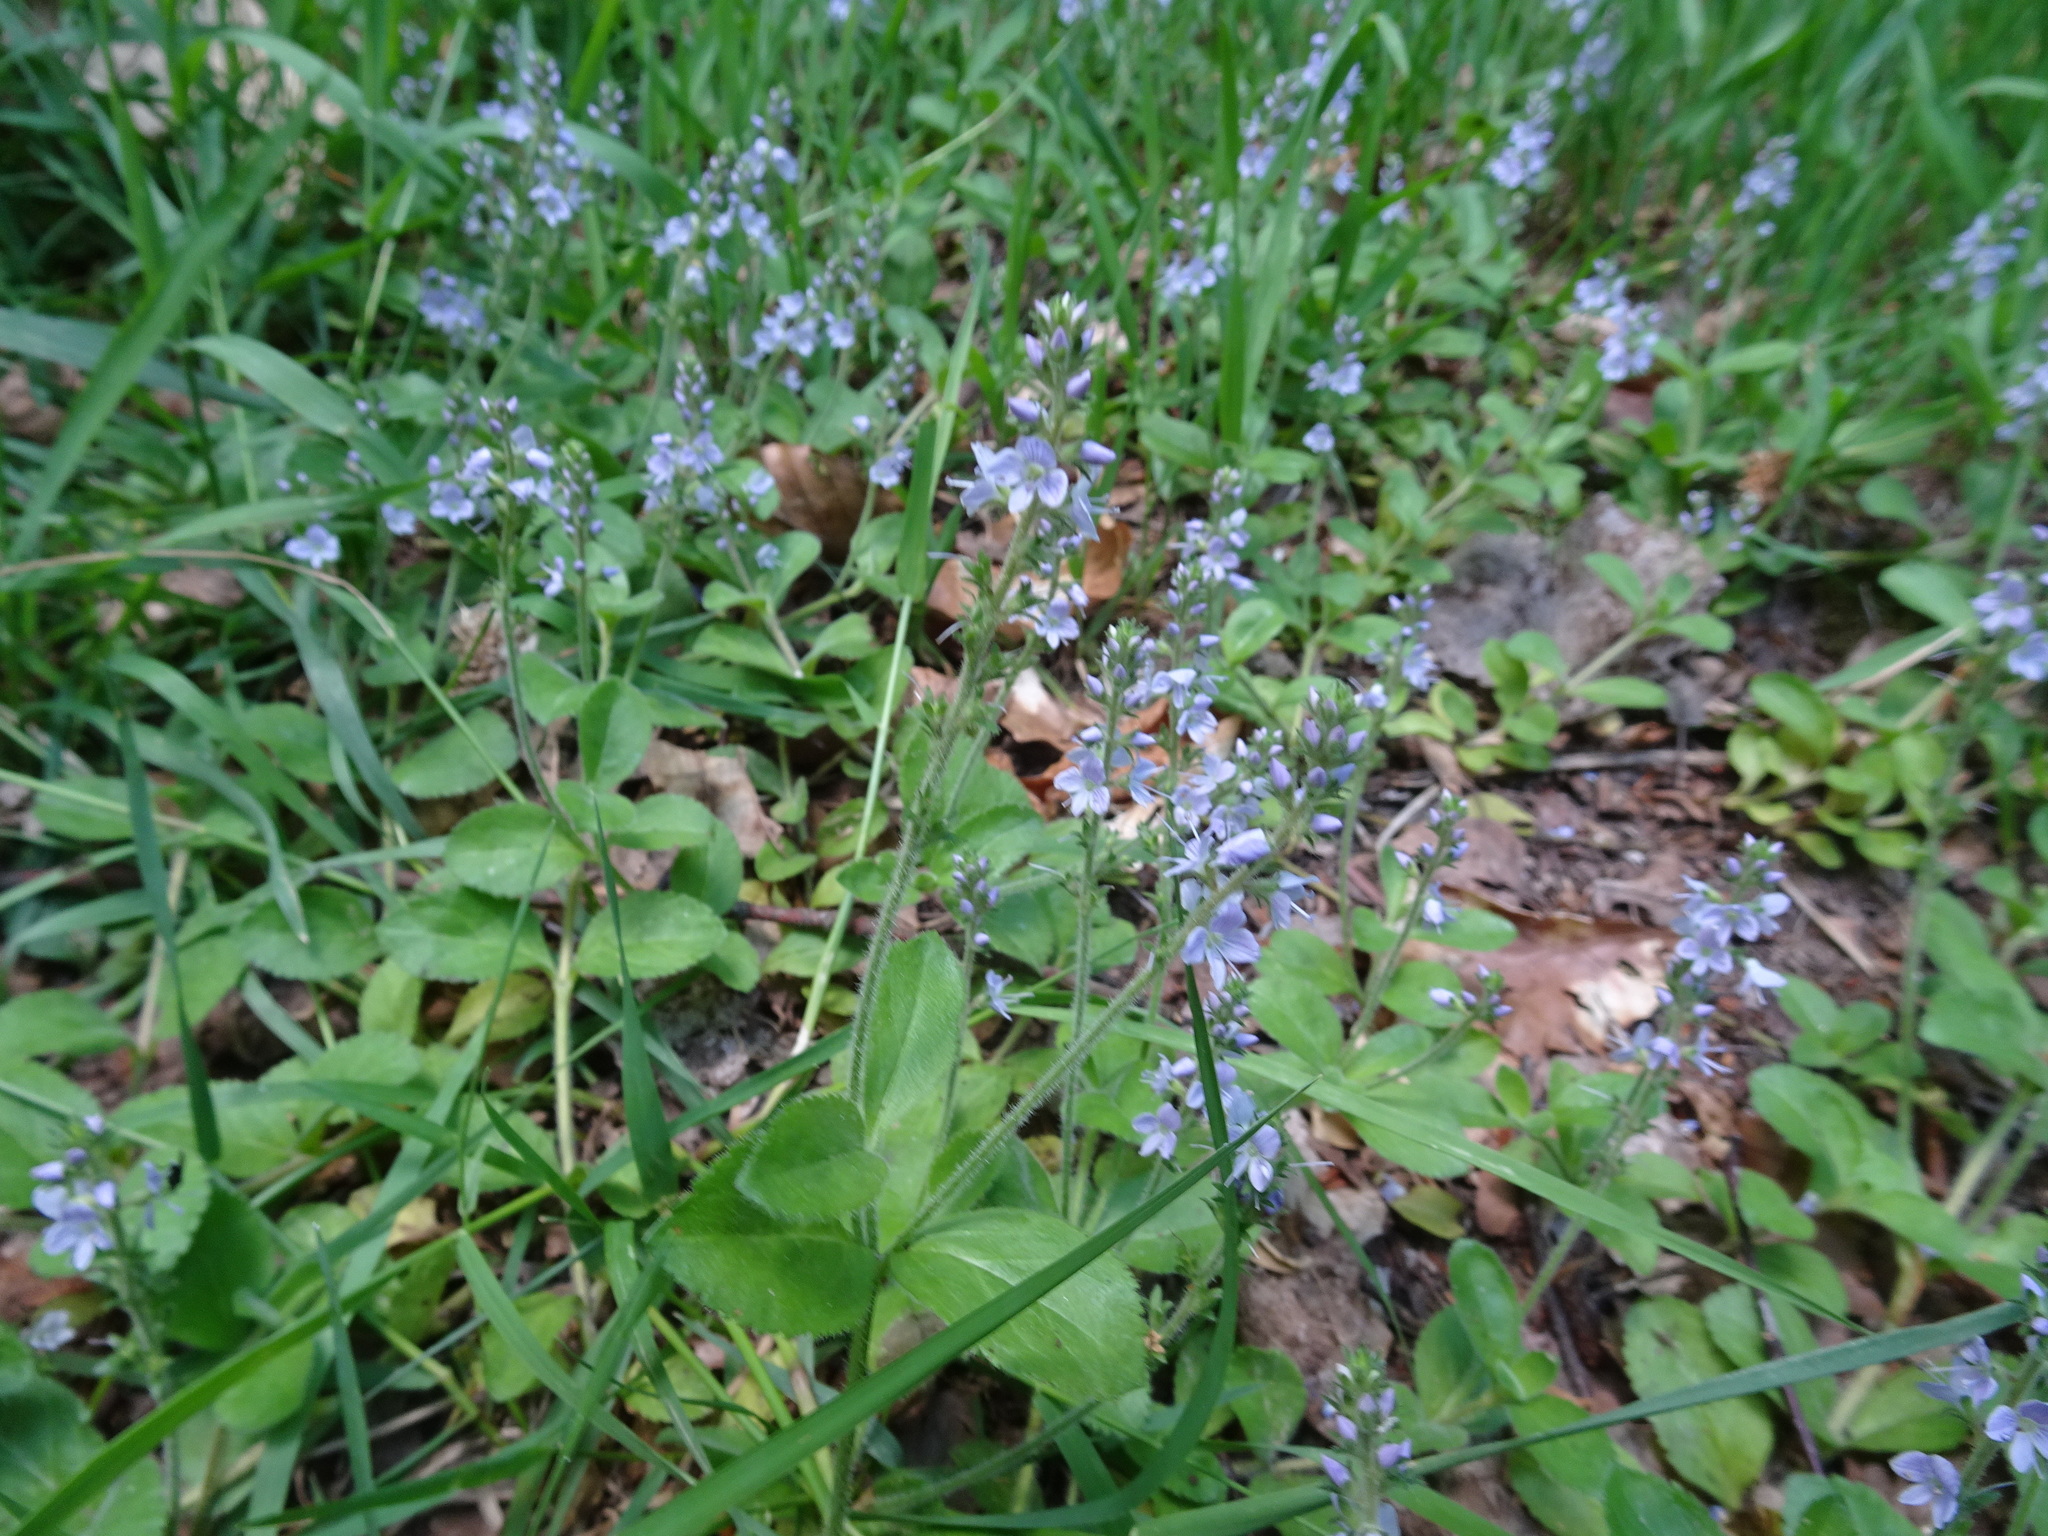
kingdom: Plantae
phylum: Tracheophyta
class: Magnoliopsida
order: Lamiales
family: Plantaginaceae
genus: Veronica
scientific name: Veronica officinalis
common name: Common speedwell
